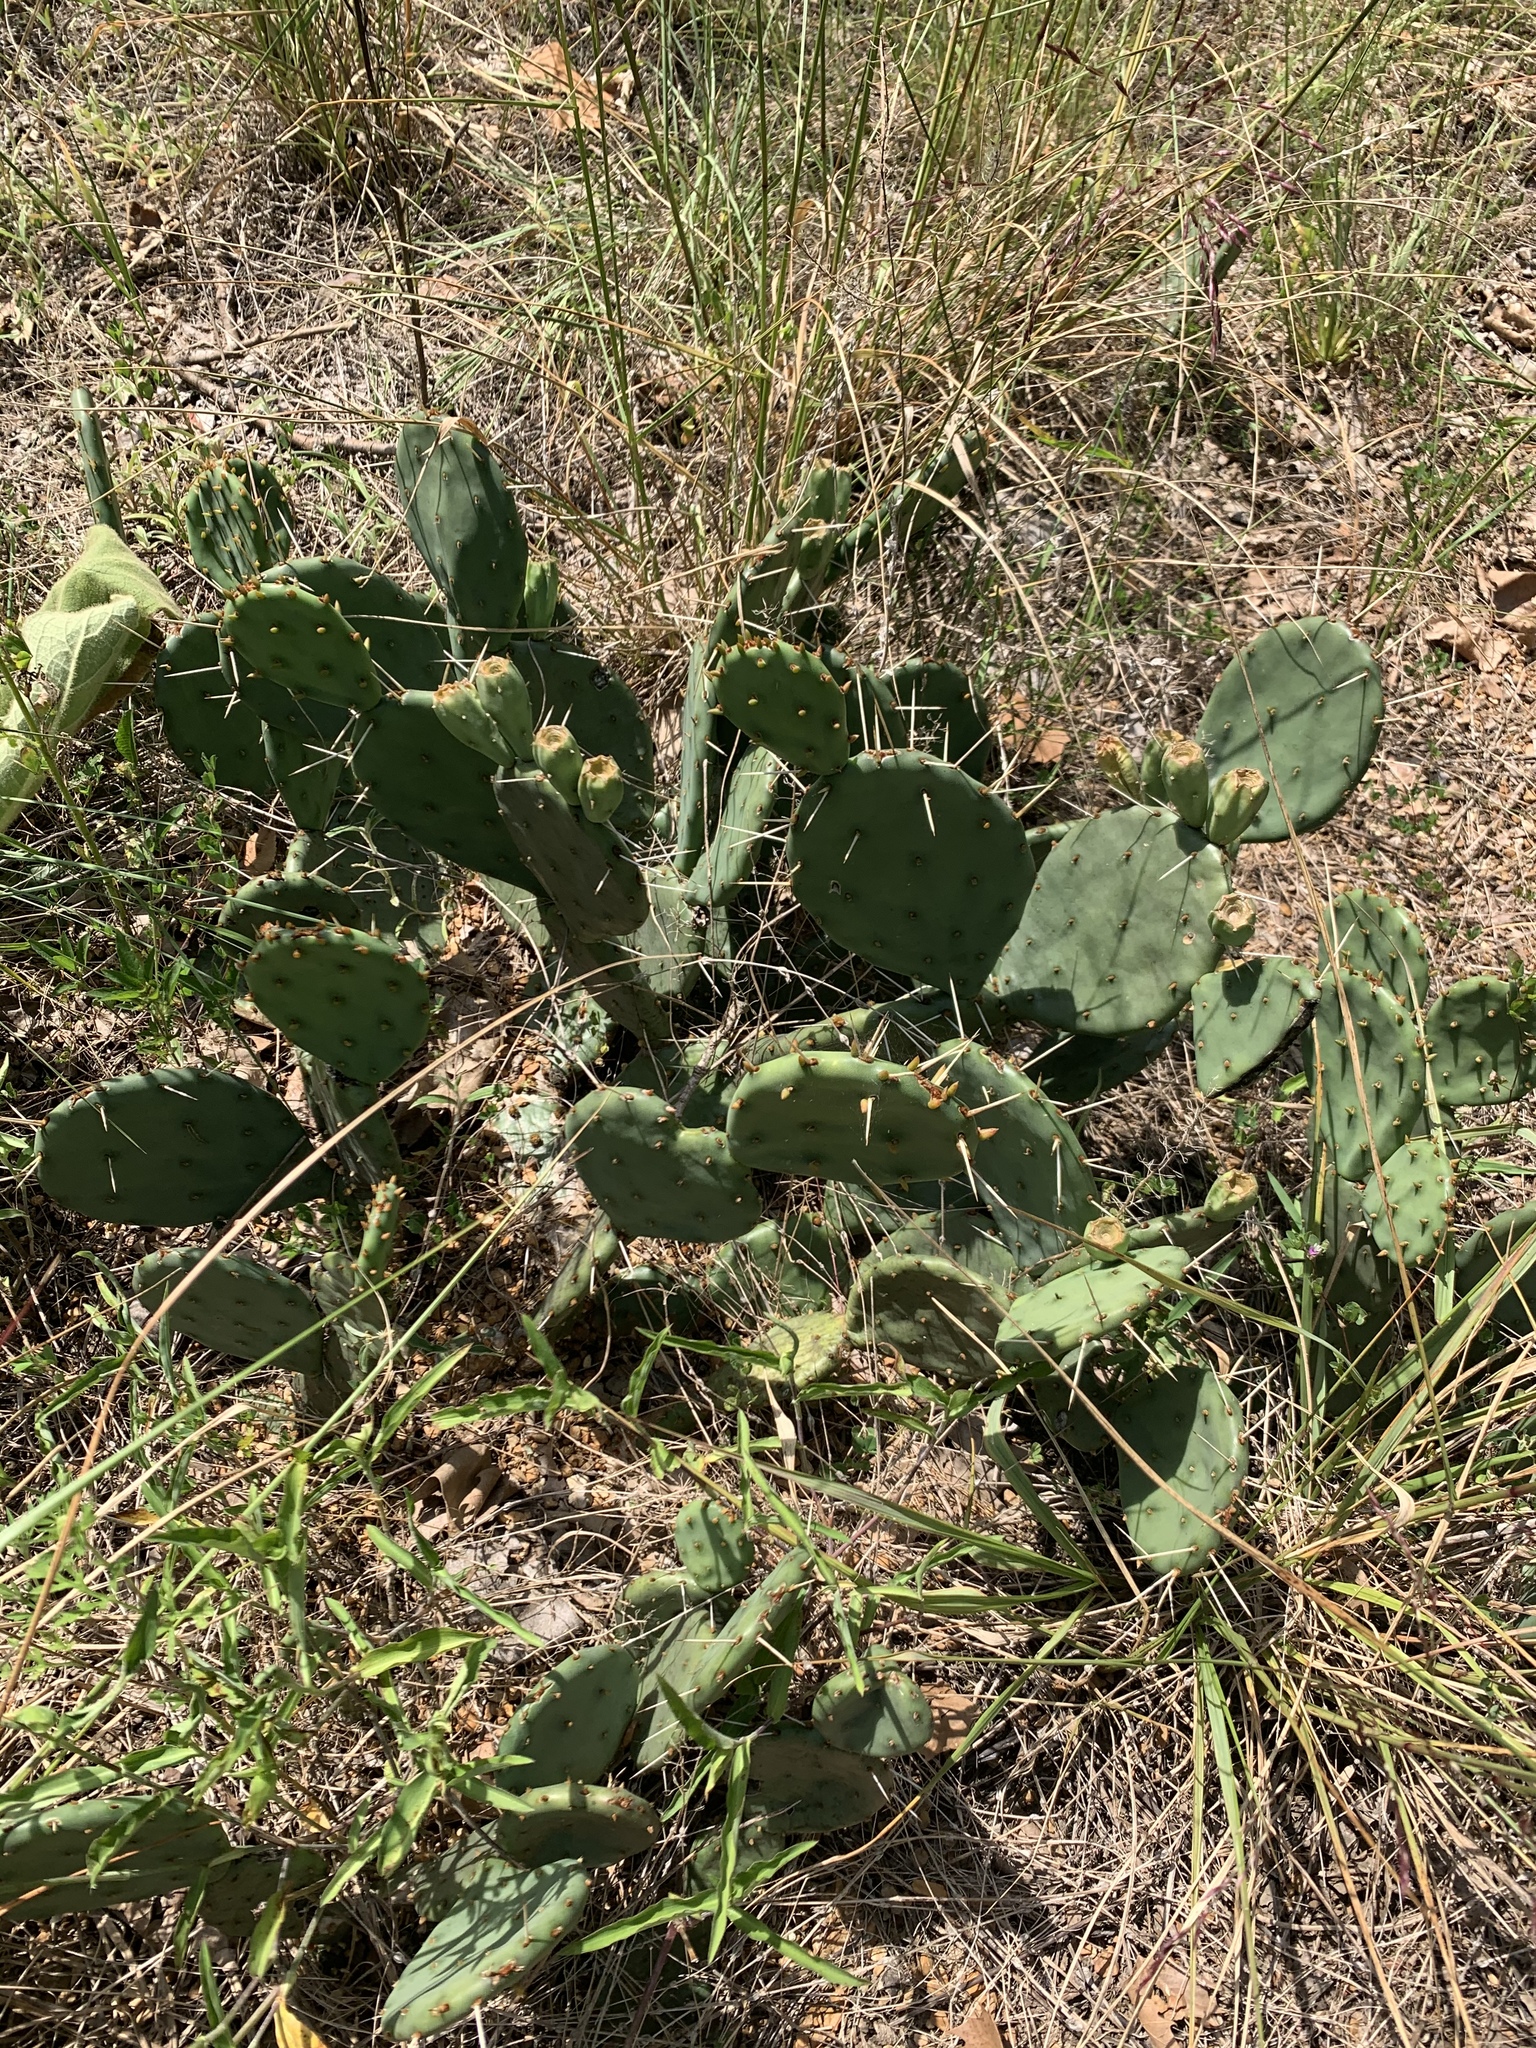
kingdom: Plantae
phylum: Tracheophyta
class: Magnoliopsida
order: Caryophyllales
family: Cactaceae
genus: Opuntia
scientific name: Opuntia macrorhiza
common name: Grassland pricklypear
